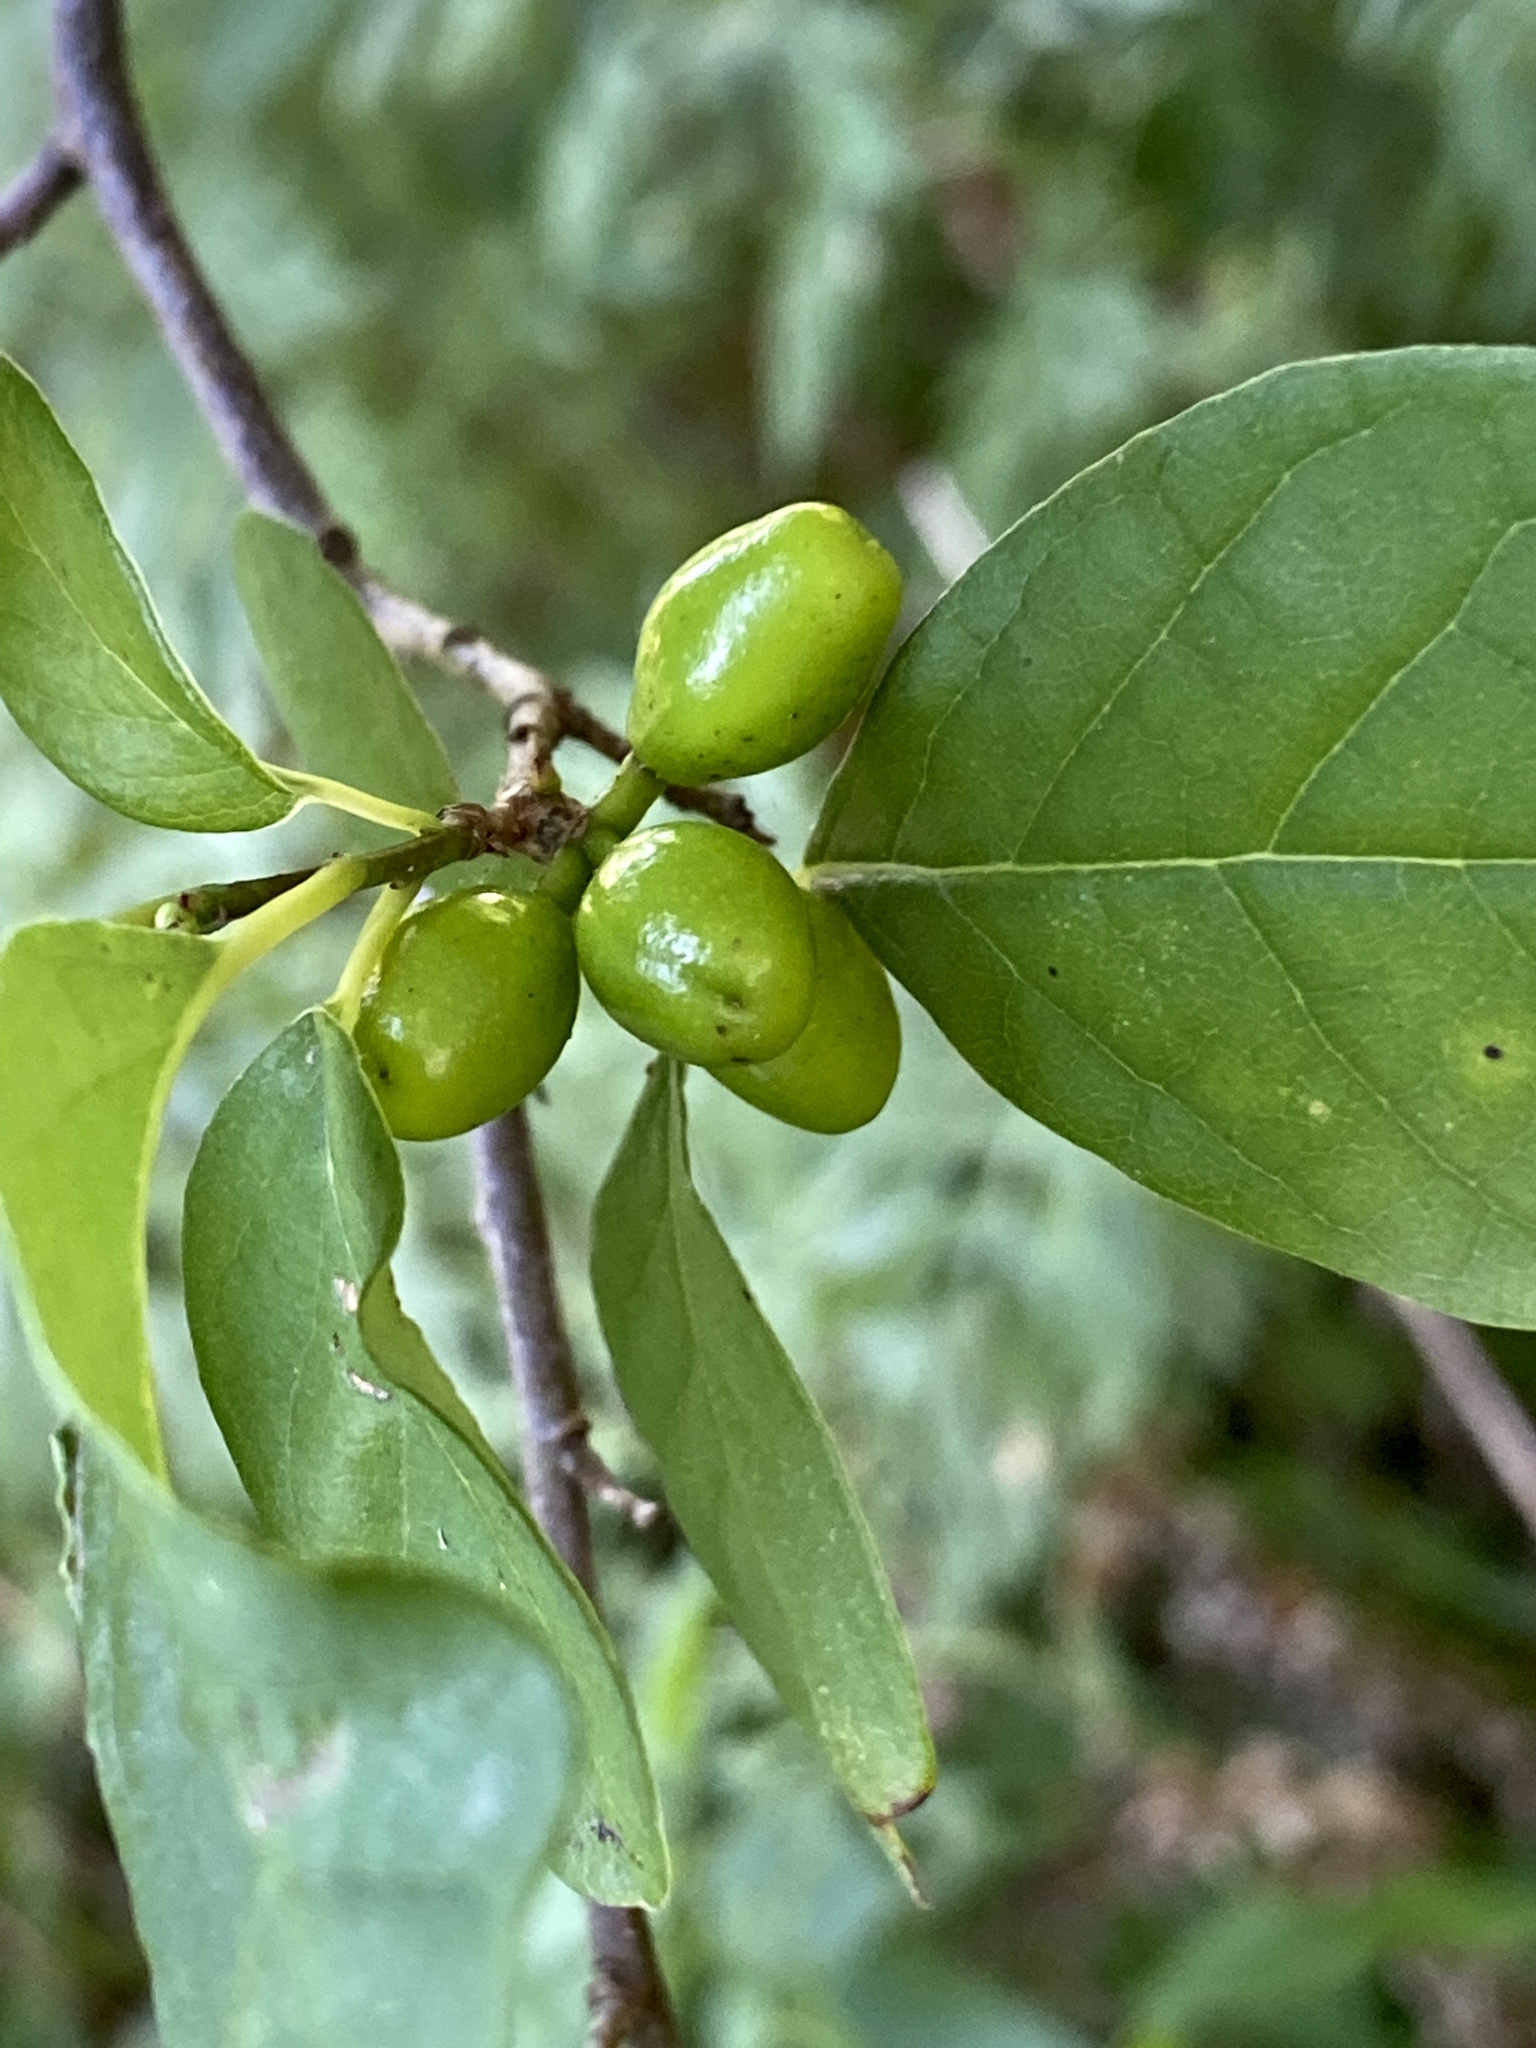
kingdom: Plantae
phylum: Tracheophyta
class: Magnoliopsida
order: Laurales
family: Lauraceae
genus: Lindera
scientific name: Lindera benzoin
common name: Spicebush
